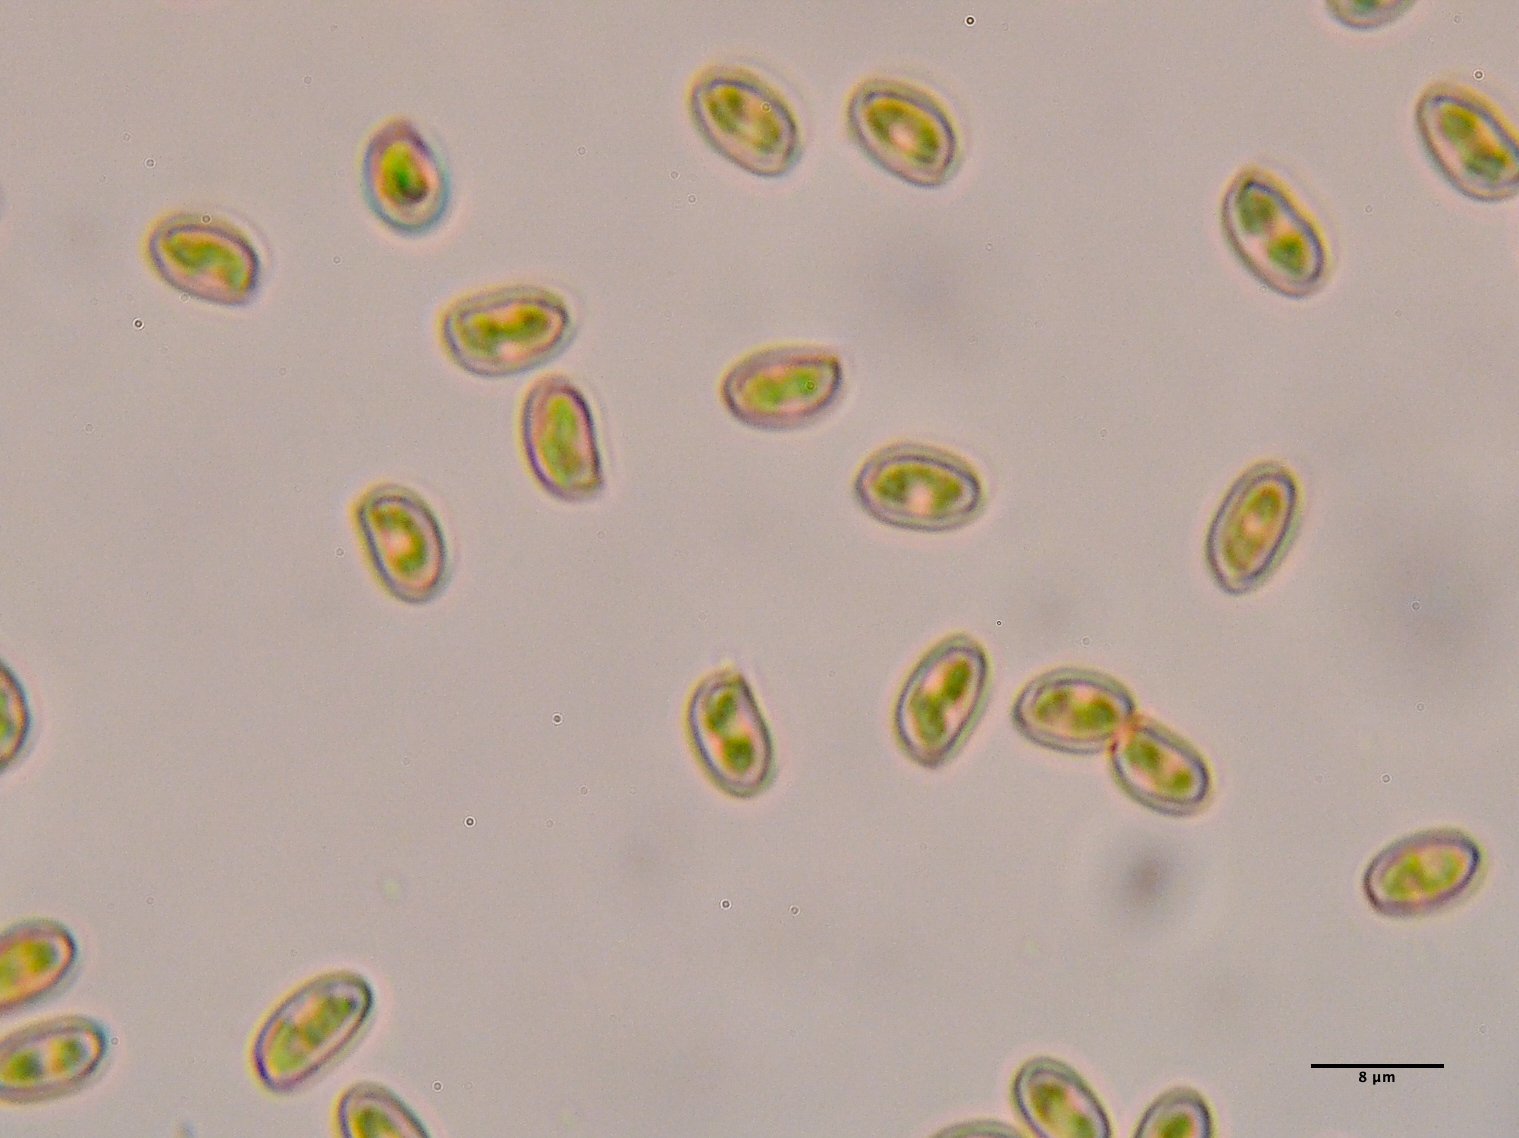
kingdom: Fungi
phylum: Basidiomycota
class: Agaricomycetes
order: Agaricales
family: Hymenogastraceae
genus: Gymnopilus
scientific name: Gymnopilus luteofolius
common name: Yellow-gilled gymnopilus
